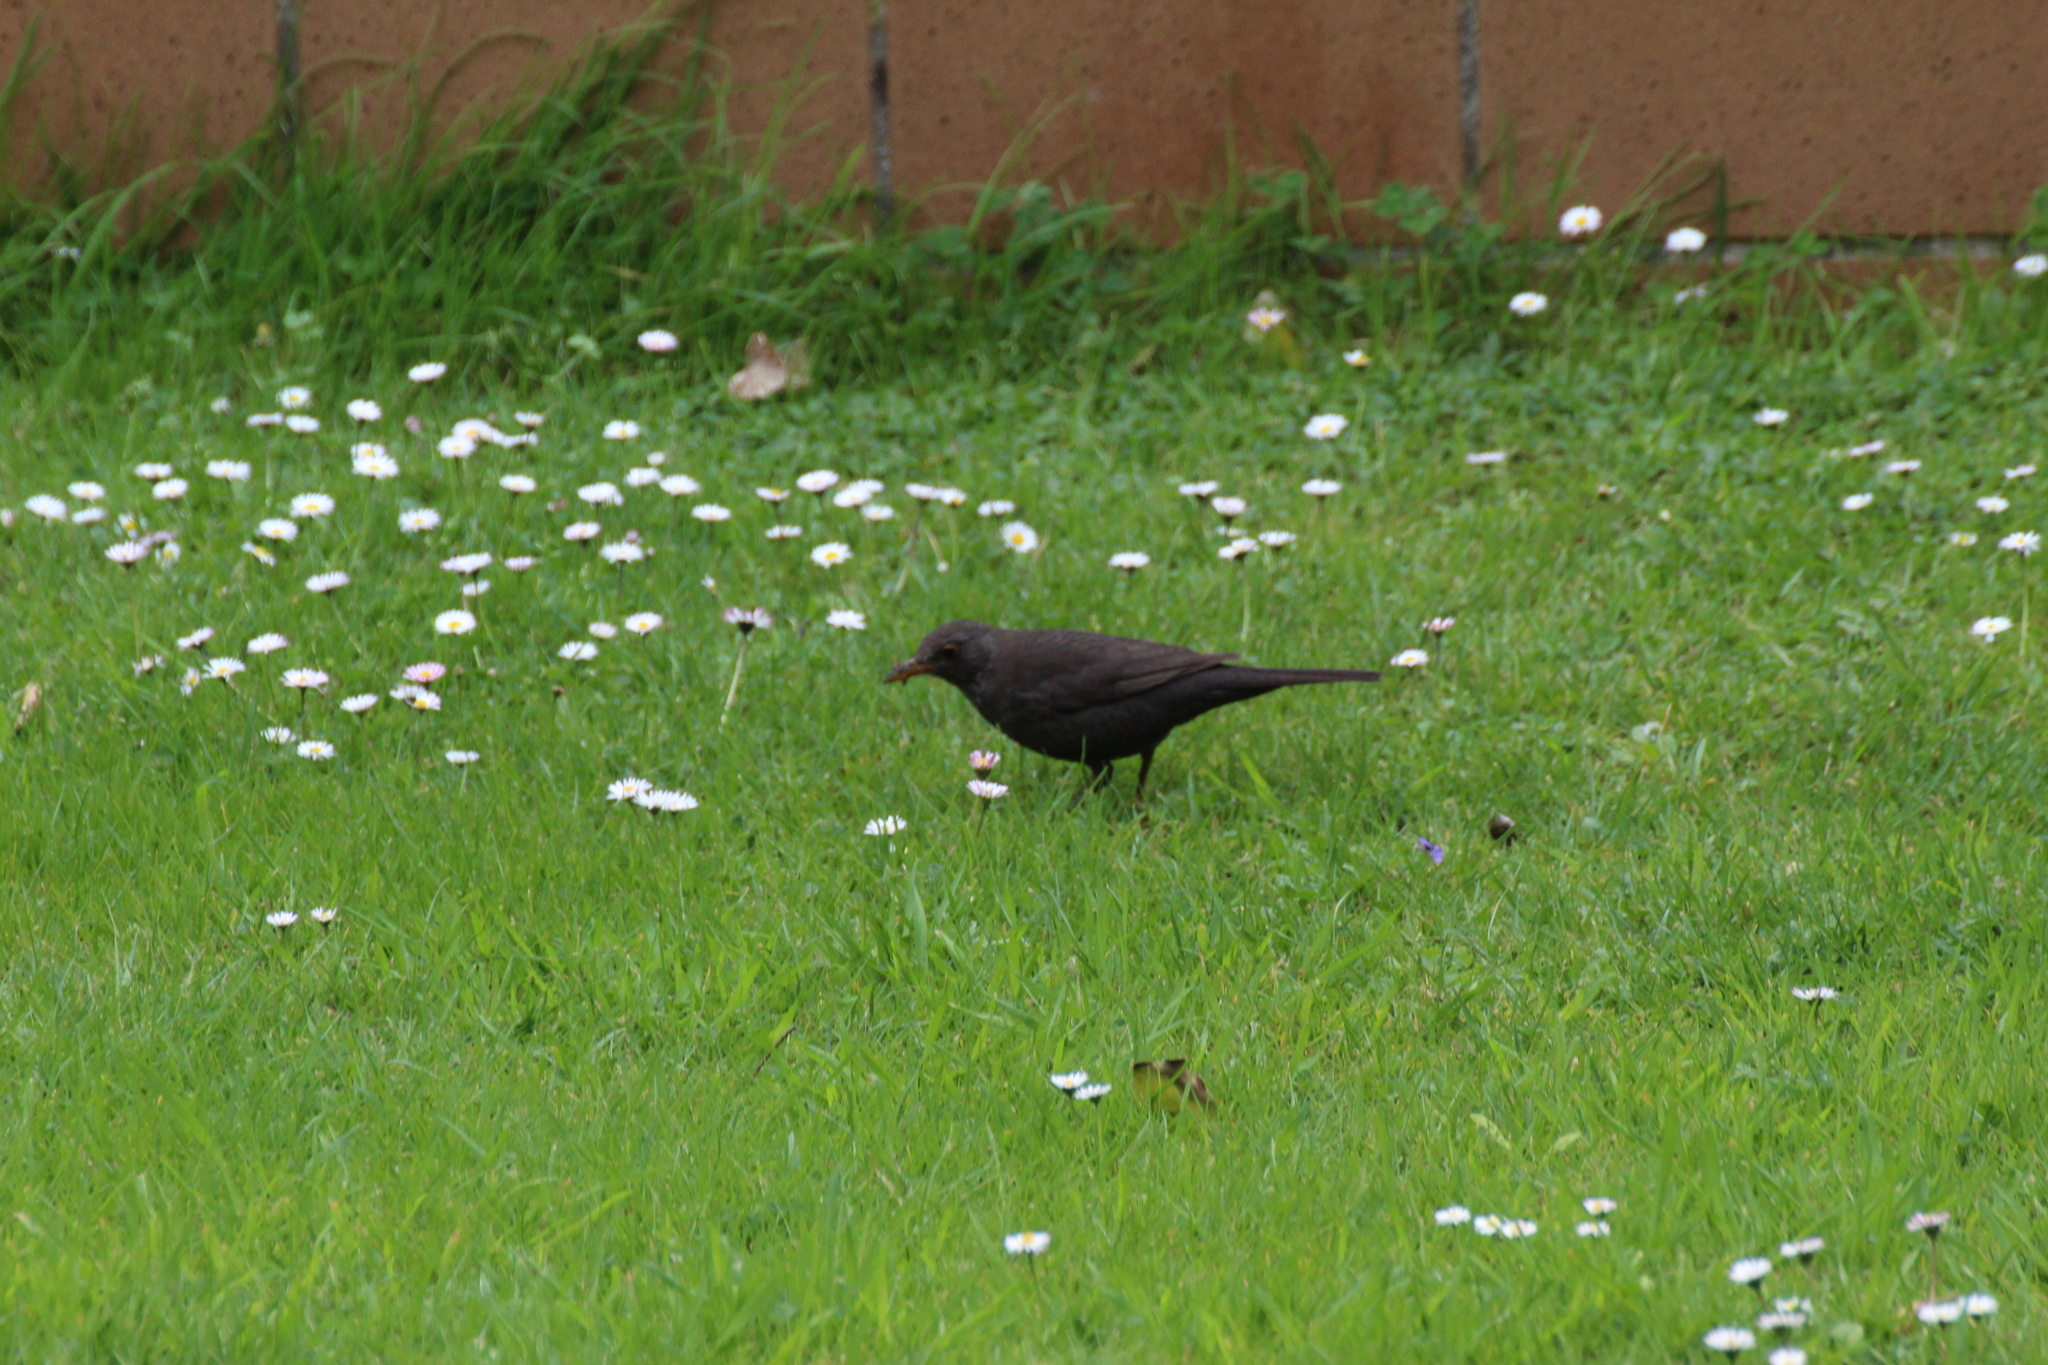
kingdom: Animalia
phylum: Chordata
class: Aves
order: Passeriformes
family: Turdidae
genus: Turdus
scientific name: Turdus merula
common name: Common blackbird
